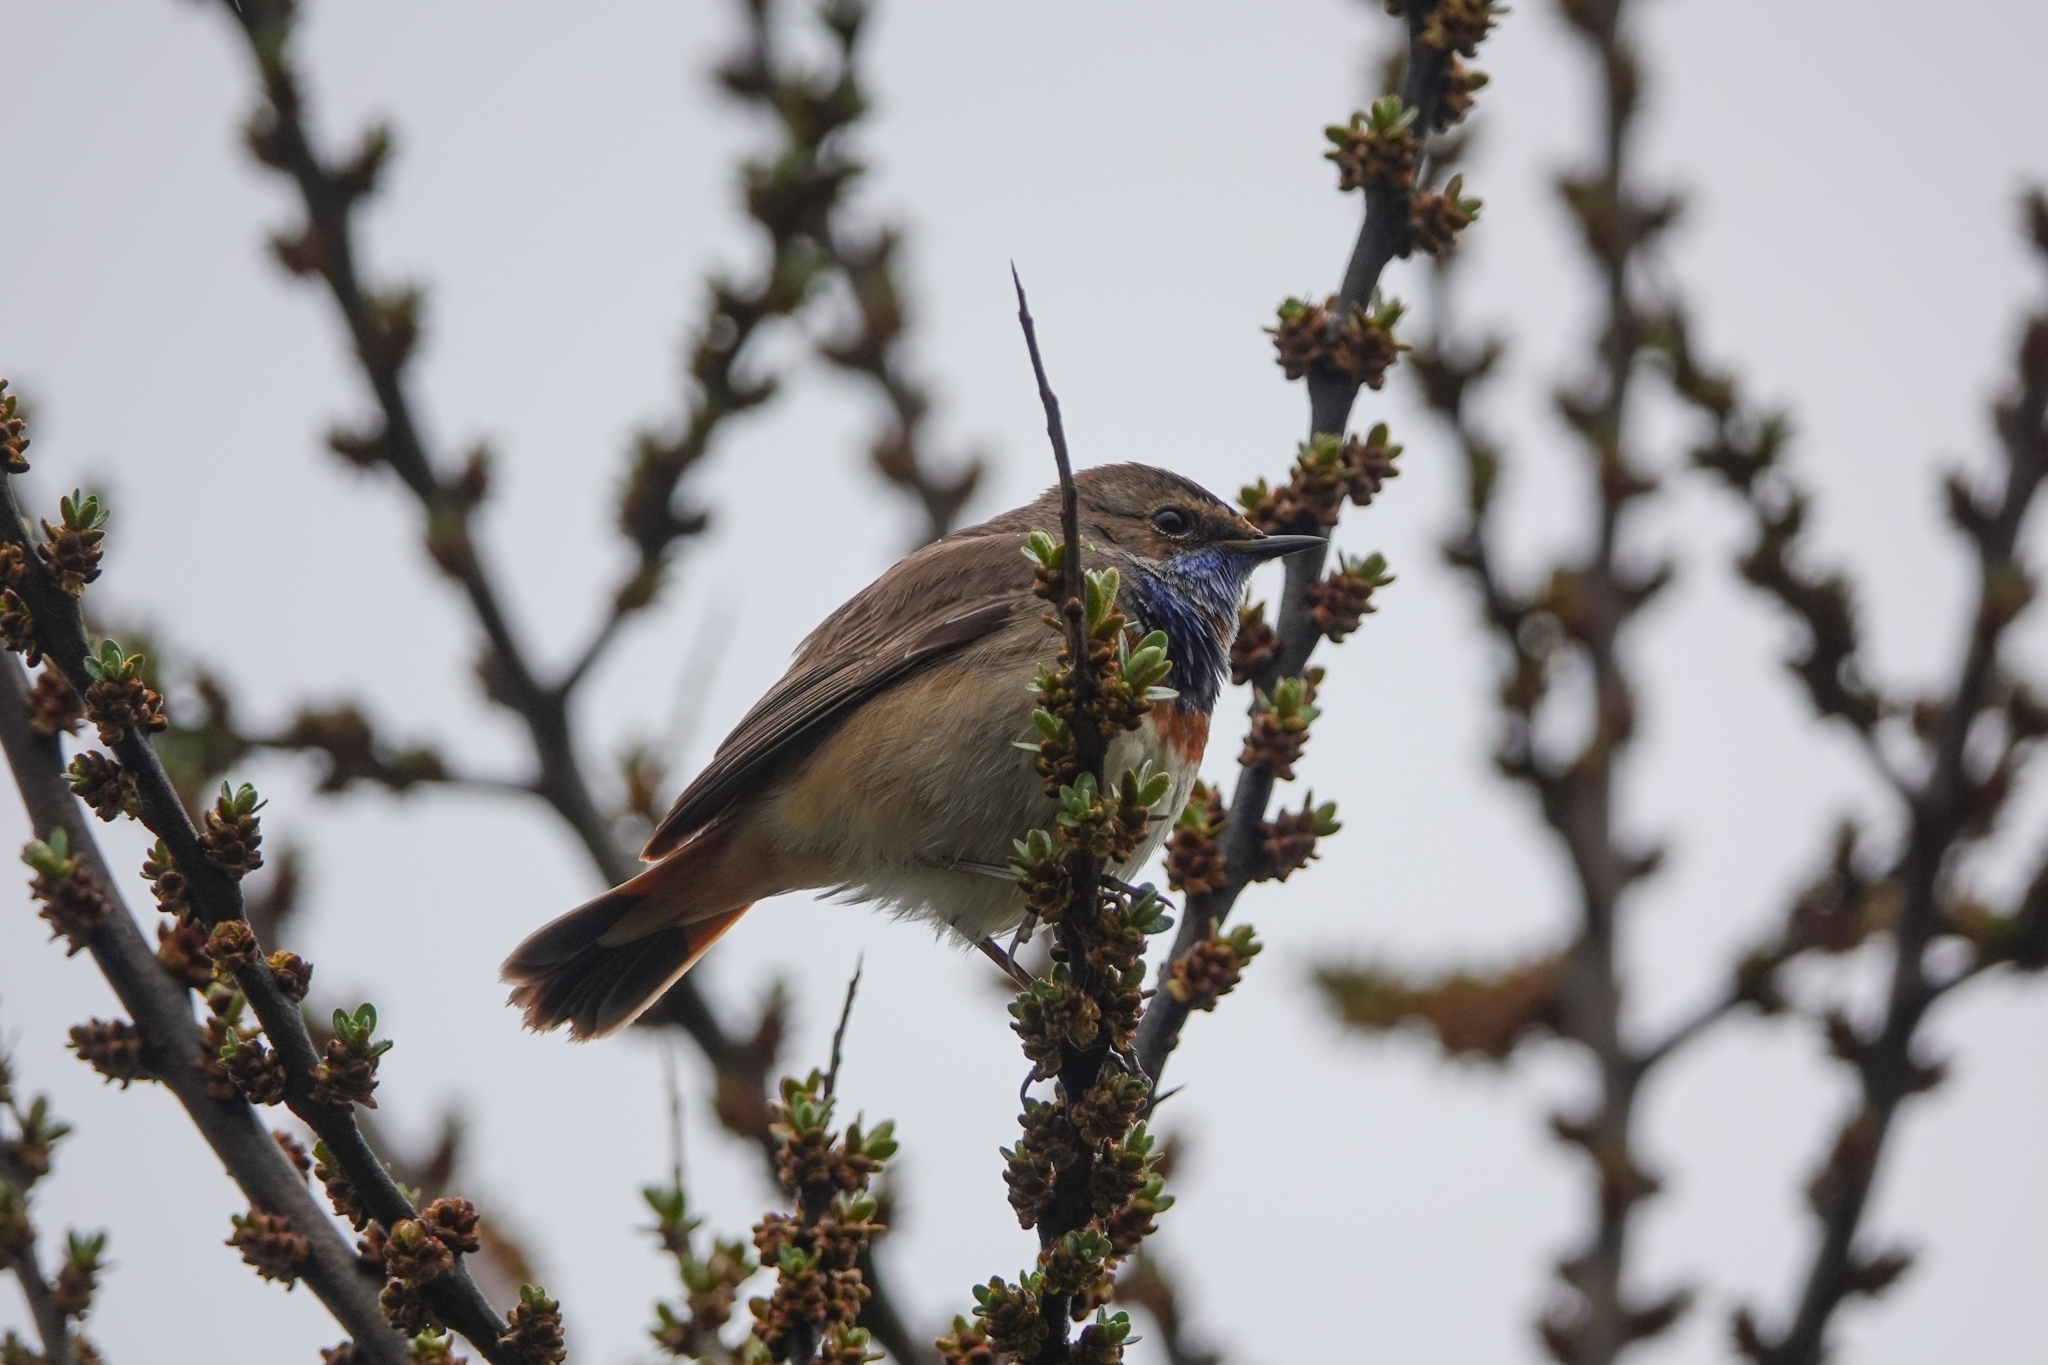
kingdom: Animalia
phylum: Chordata
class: Aves
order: Passeriformes
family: Muscicapidae
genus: Luscinia
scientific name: Luscinia svecica
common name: Bluethroat
